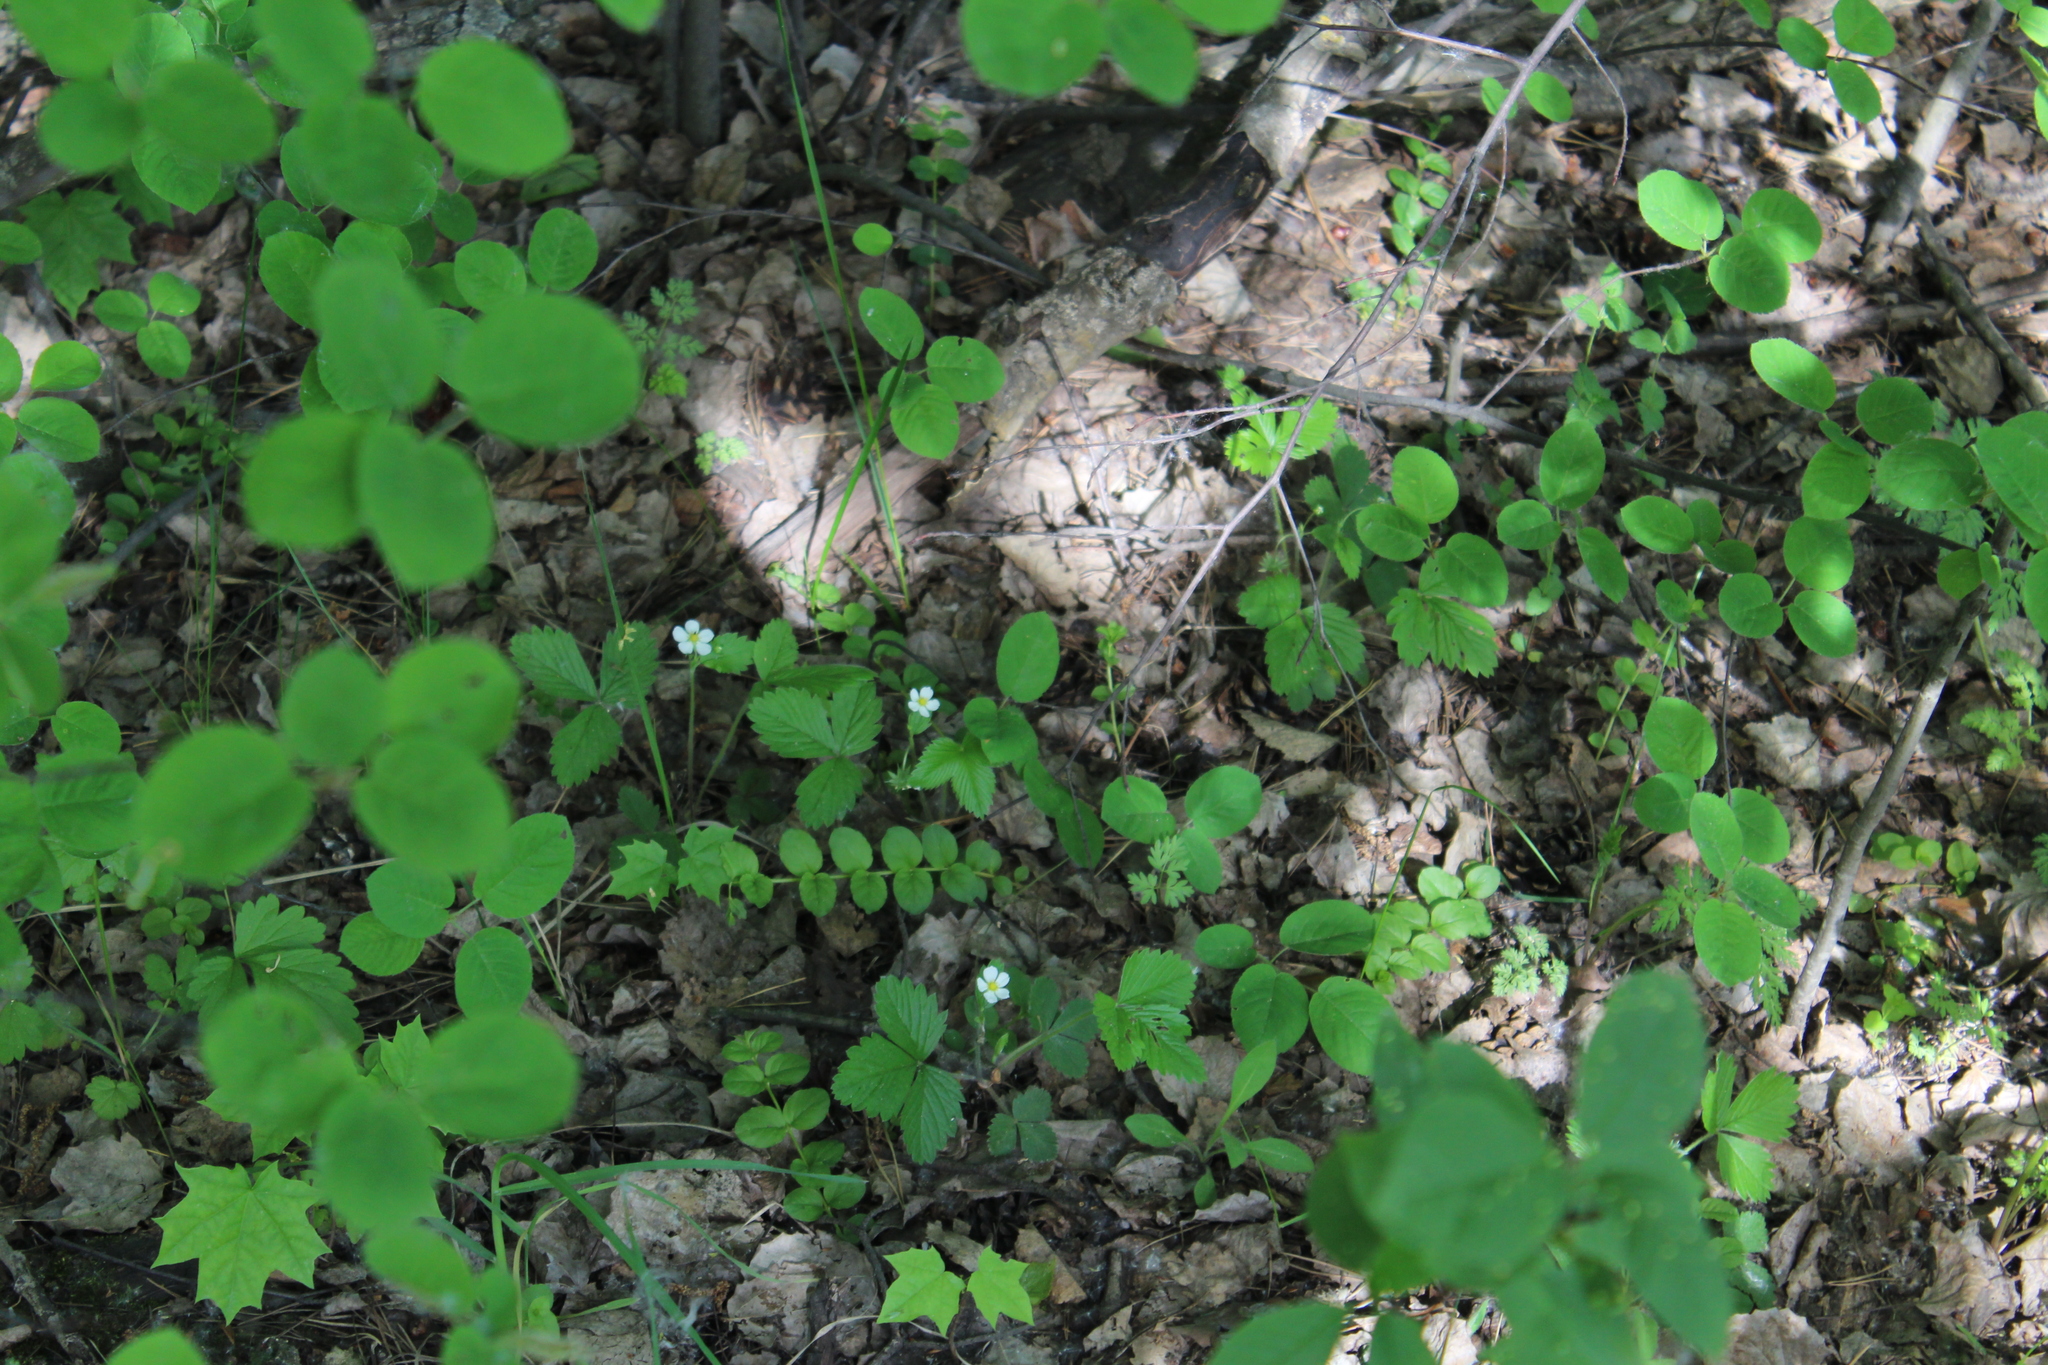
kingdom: Plantae
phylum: Tracheophyta
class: Magnoliopsida
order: Rosales
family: Rosaceae
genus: Fragaria
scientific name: Fragaria vesca
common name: Wild strawberry
